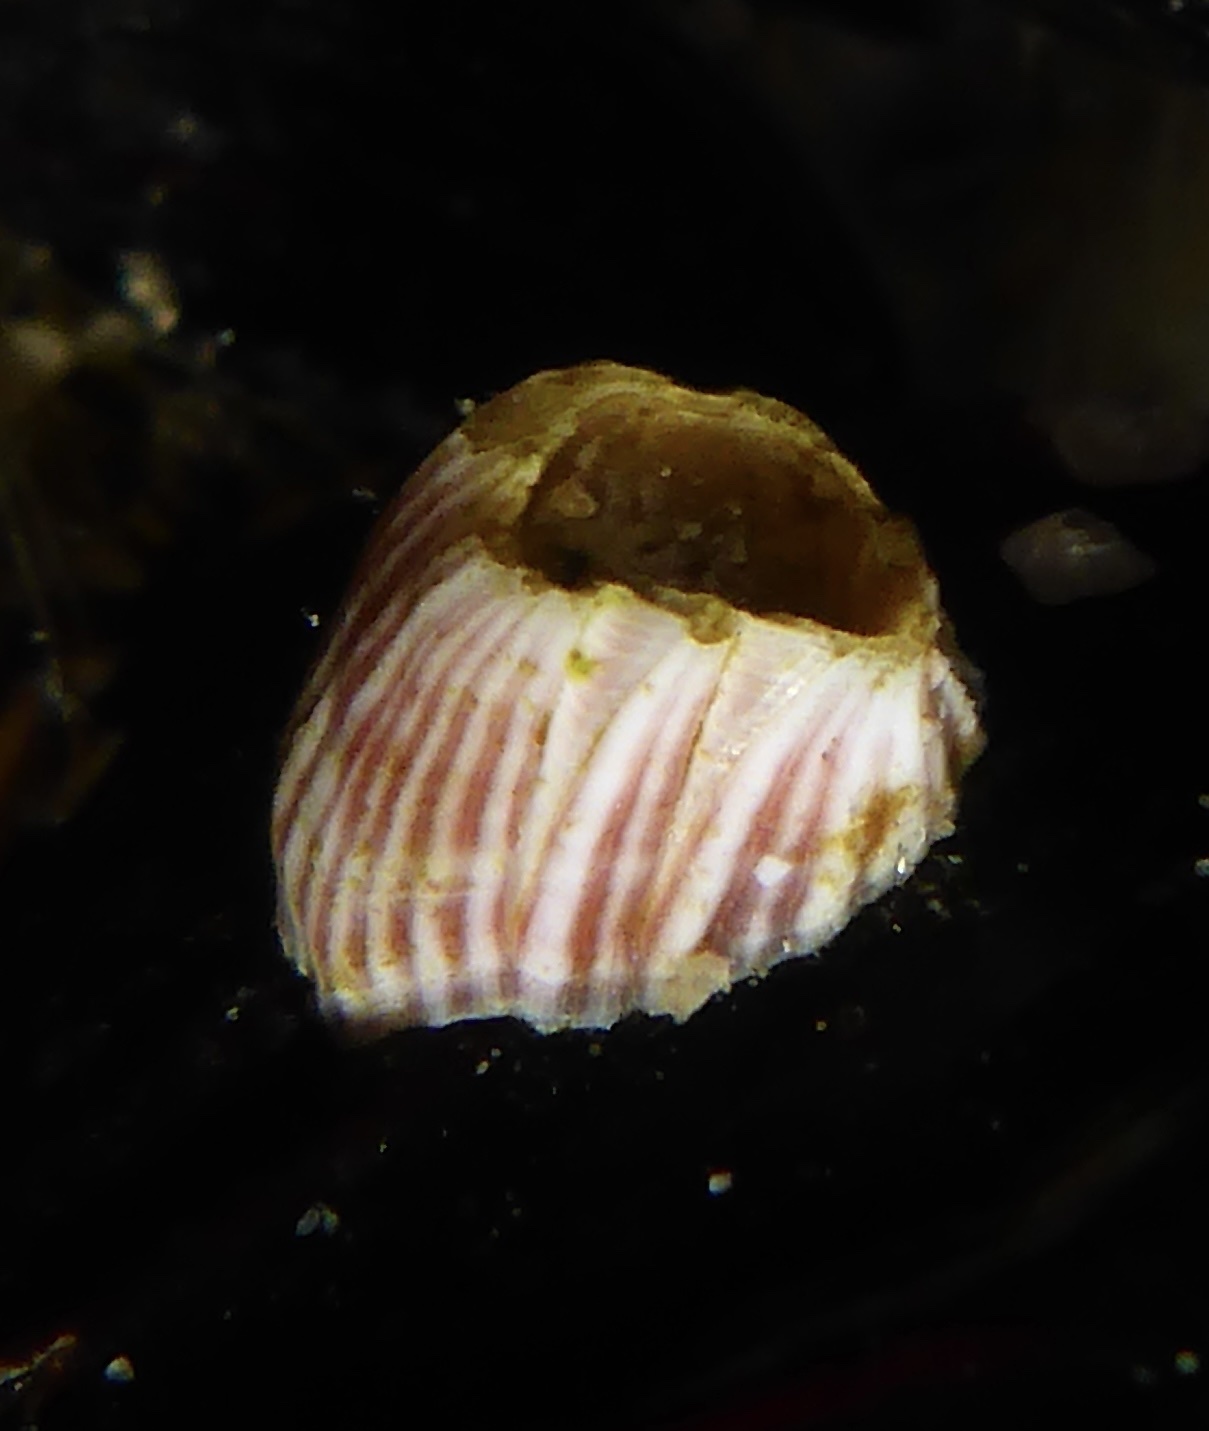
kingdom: Animalia
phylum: Arthropoda
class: Maxillopoda
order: Sessilia
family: Balanidae
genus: Megabalanus
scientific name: Megabalanus californicus
